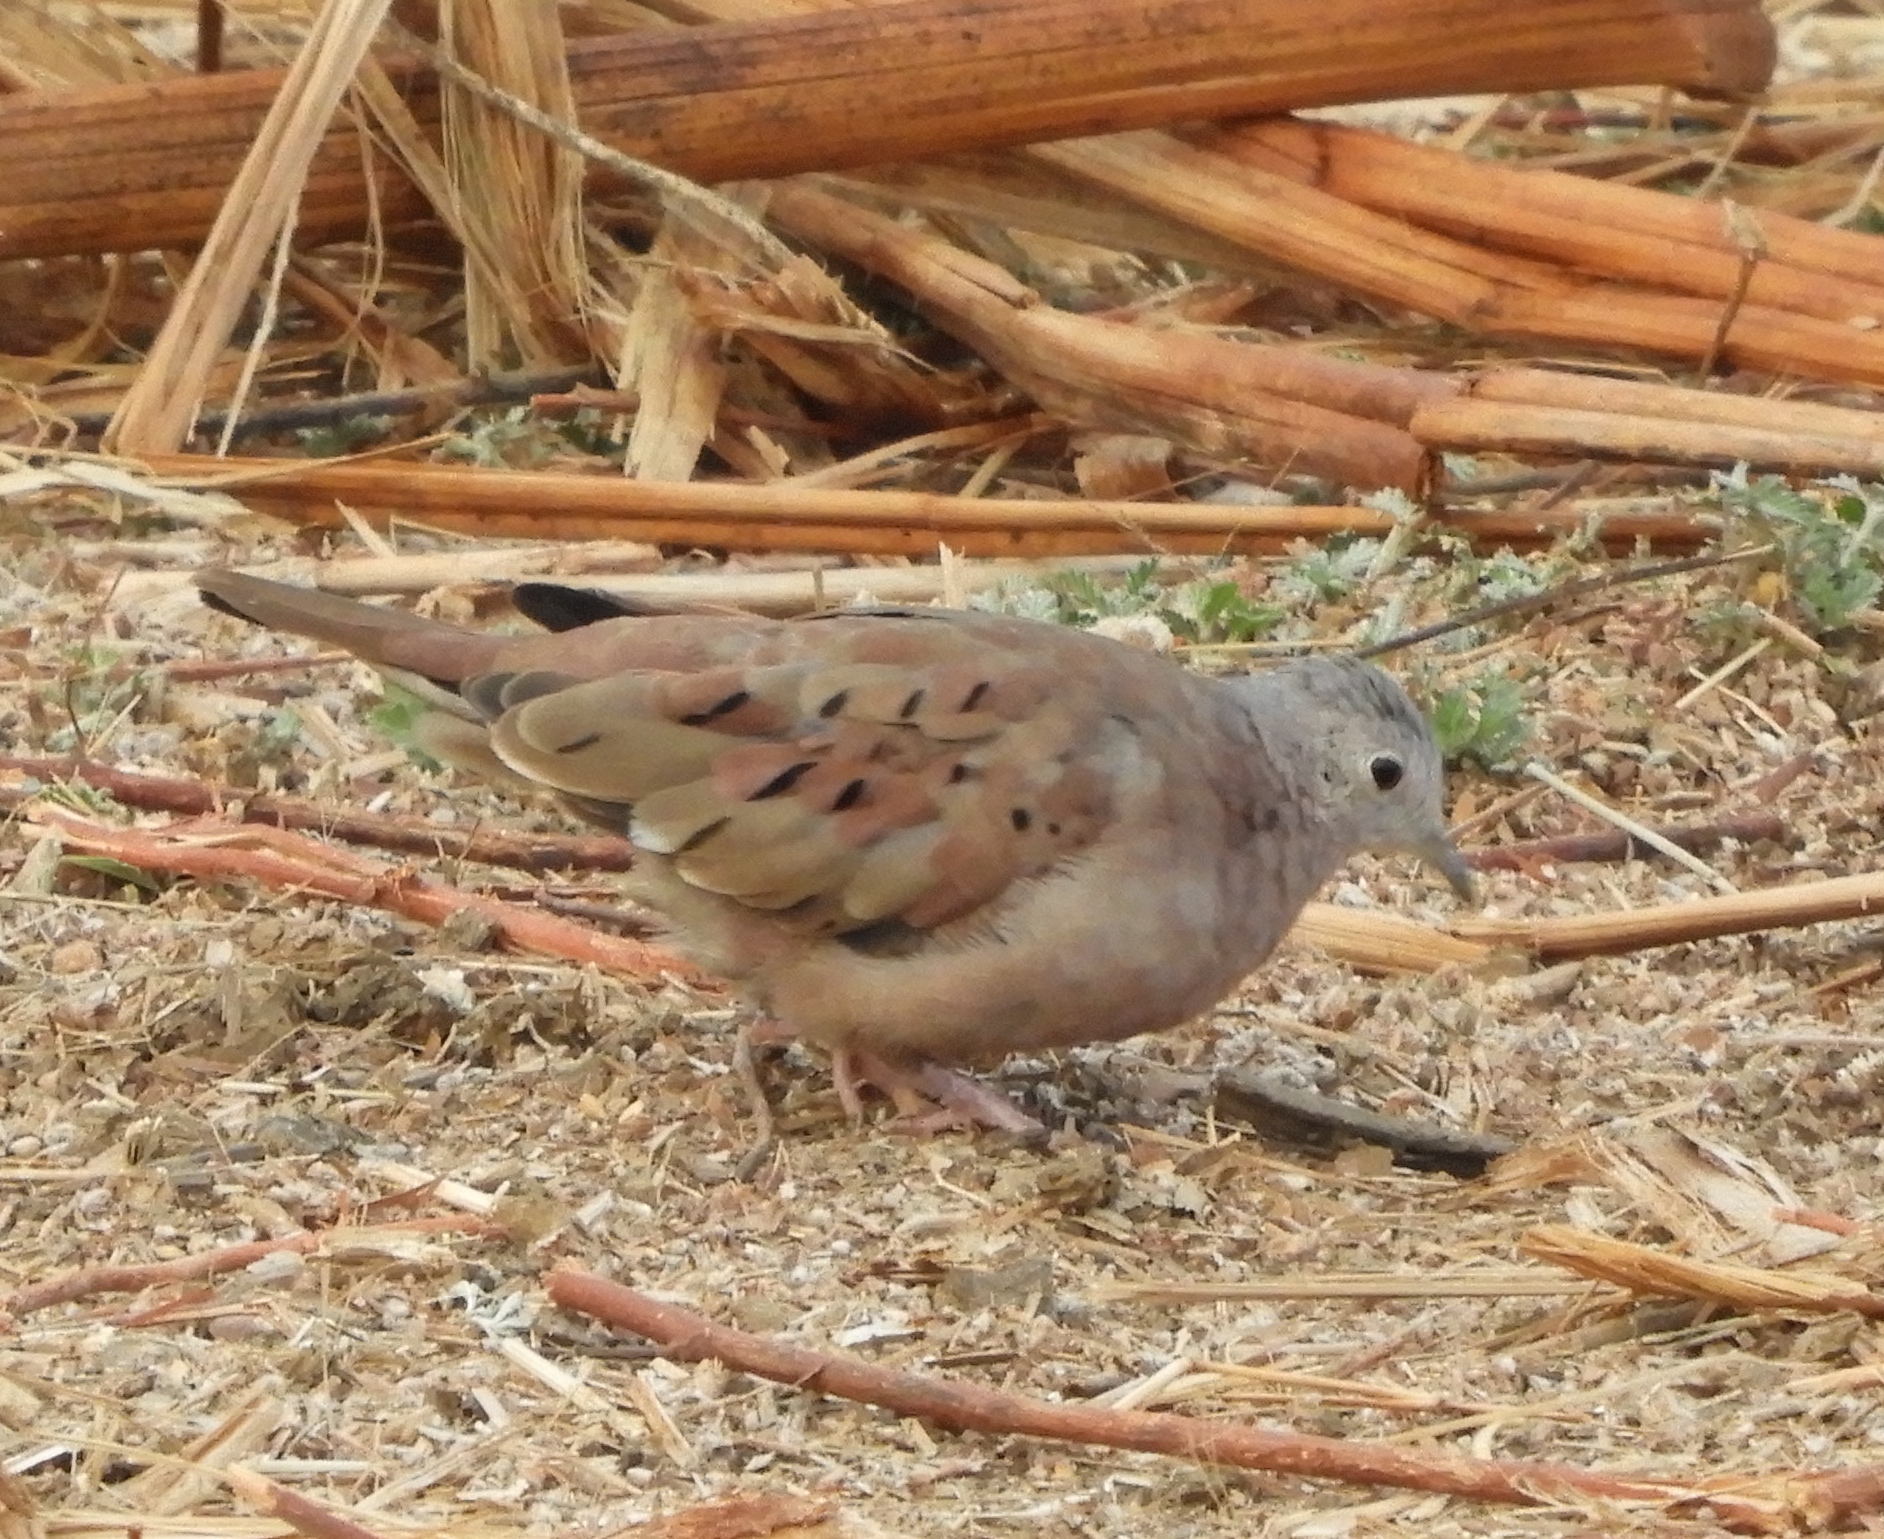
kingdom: Animalia
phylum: Chordata
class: Aves
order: Columbiformes
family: Columbidae
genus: Columbina
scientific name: Columbina talpacoti
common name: Ruddy ground dove
